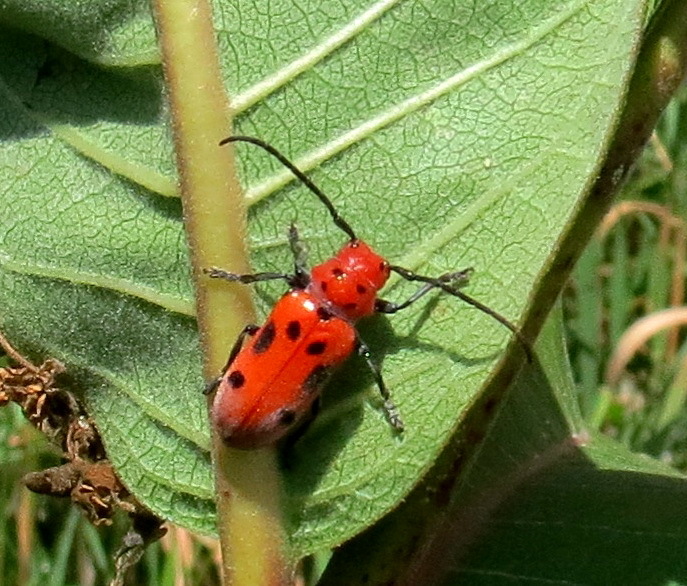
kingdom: Animalia
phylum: Arthropoda
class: Insecta
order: Coleoptera
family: Cerambycidae
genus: Tetraopes
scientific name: Tetraopes tetrophthalmus
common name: Red milkweed beetle
